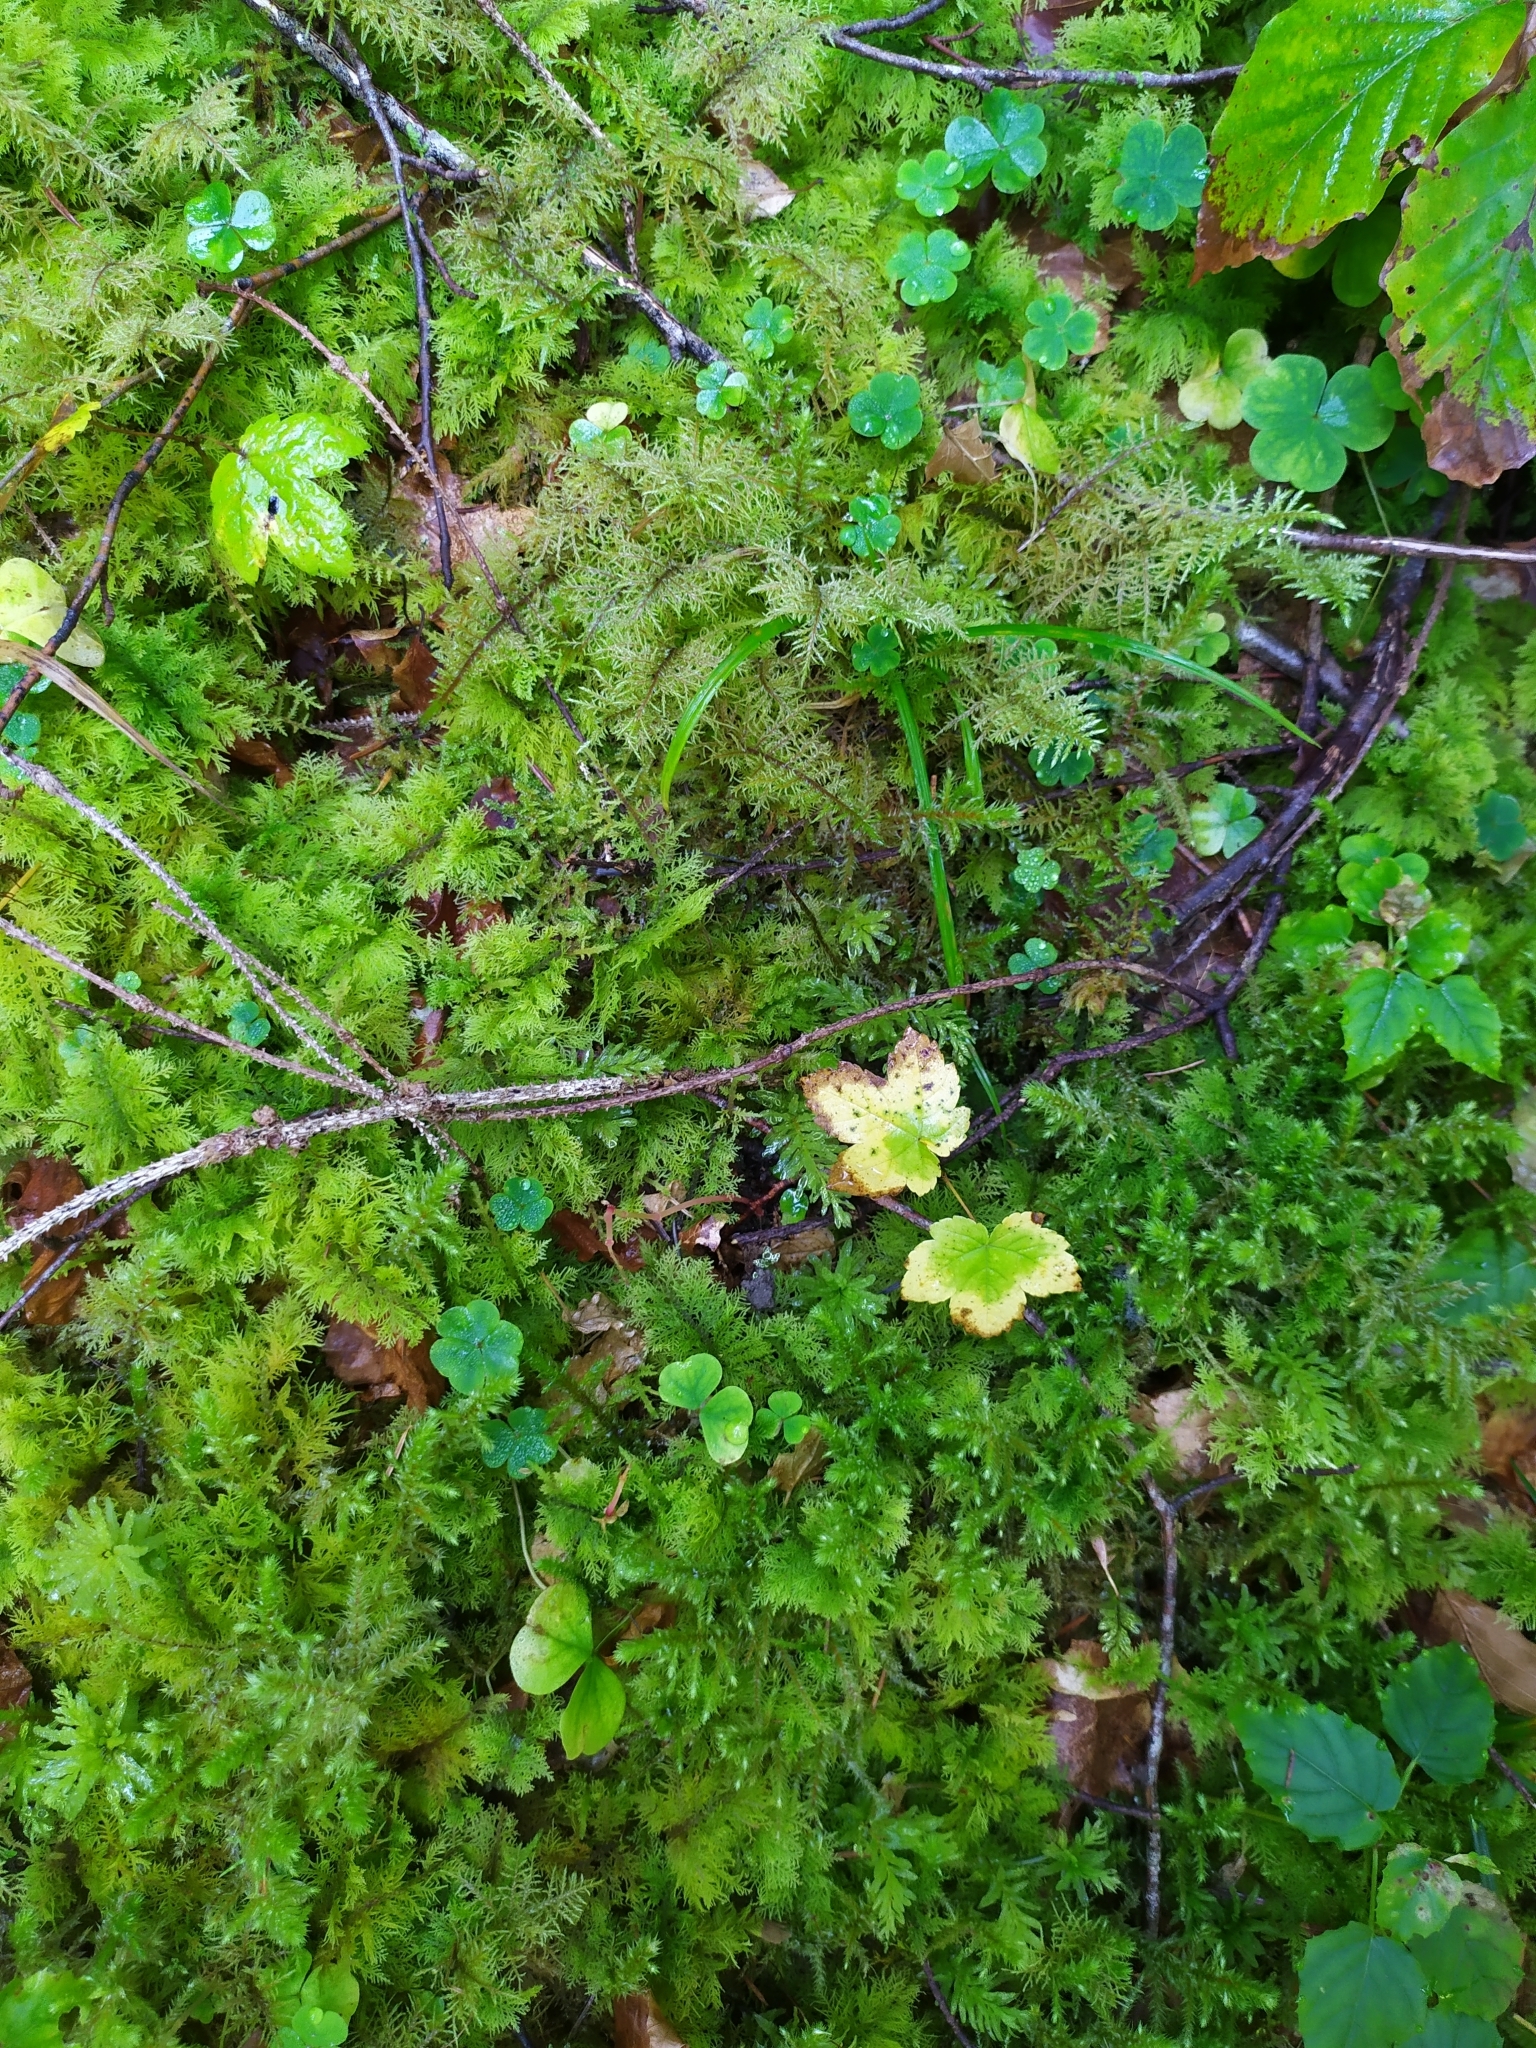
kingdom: Plantae
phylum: Bryophyta
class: Bryopsida
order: Hypnales
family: Hylocomiaceae
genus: Hylocomiadelphus
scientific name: Hylocomiadelphus triquetrus
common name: Rough goose neck moss
